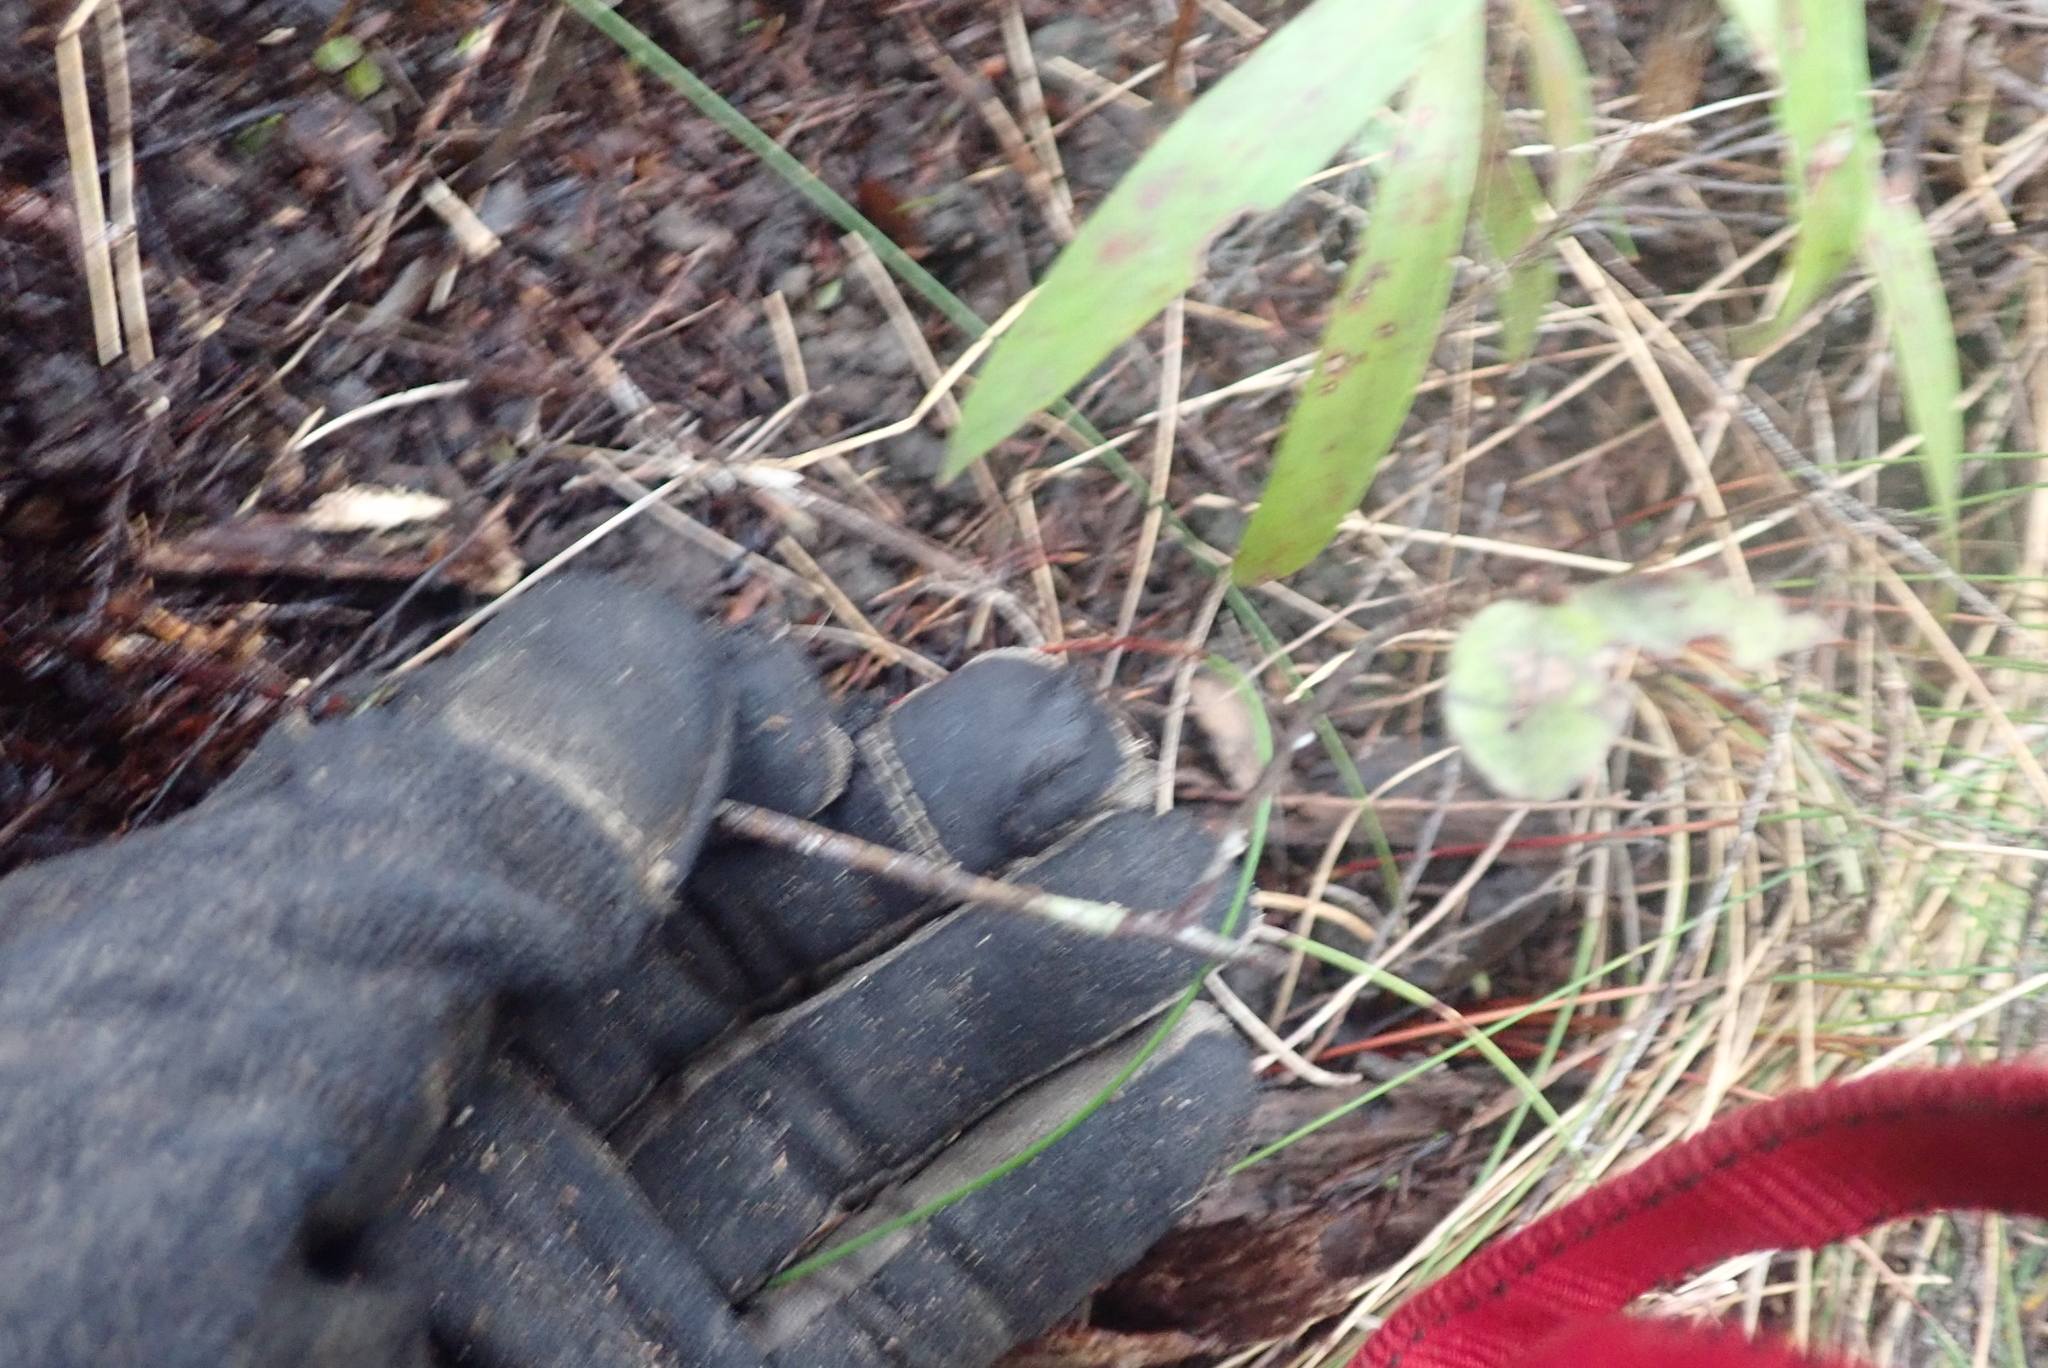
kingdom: Plantae
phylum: Tracheophyta
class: Magnoliopsida
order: Ericales
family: Primulaceae
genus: Myrsine
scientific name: Myrsine australis
